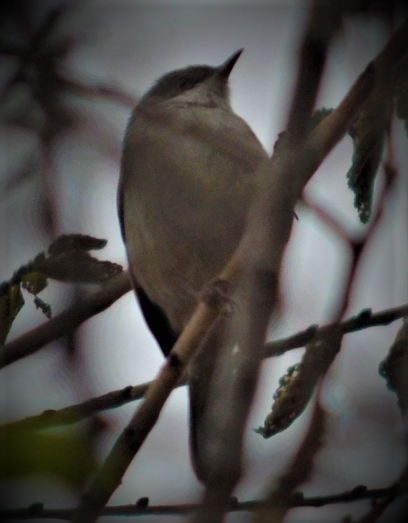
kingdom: Animalia
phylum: Chordata
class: Aves
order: Passeriformes
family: Sylviidae
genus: Curruca
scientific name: Curruca melanocephala
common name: Sardinian warbler
